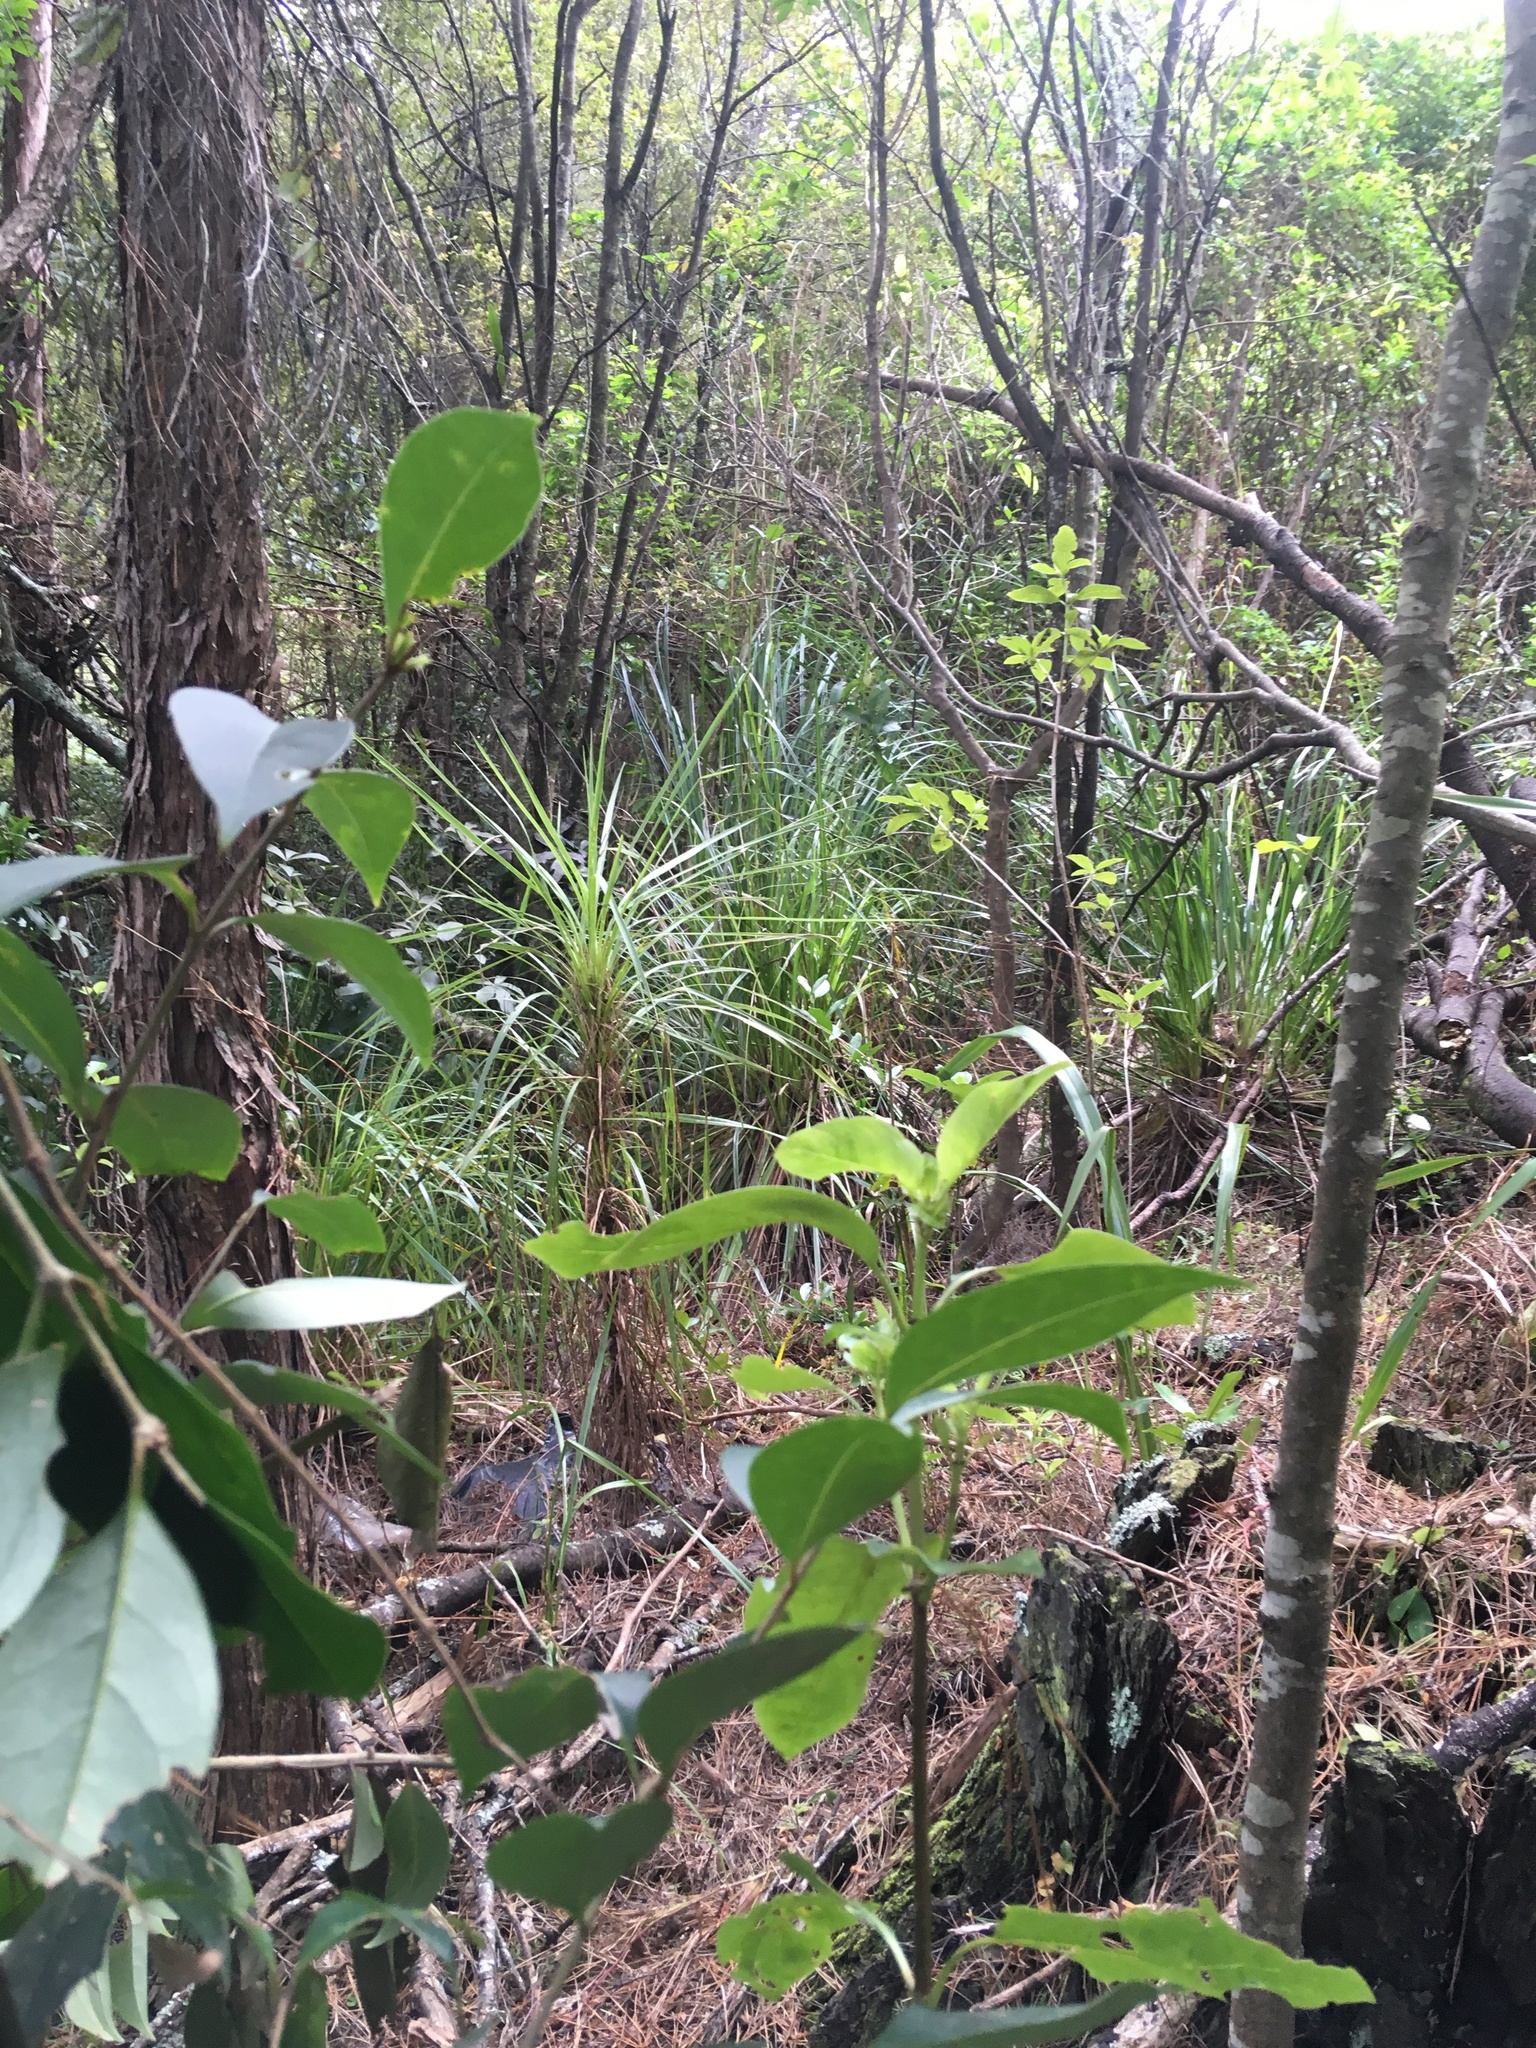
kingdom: Plantae
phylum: Tracheophyta
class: Liliopsida
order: Asparagales
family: Asparagaceae
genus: Cordyline
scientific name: Cordyline australis
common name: Cabbage-palm
